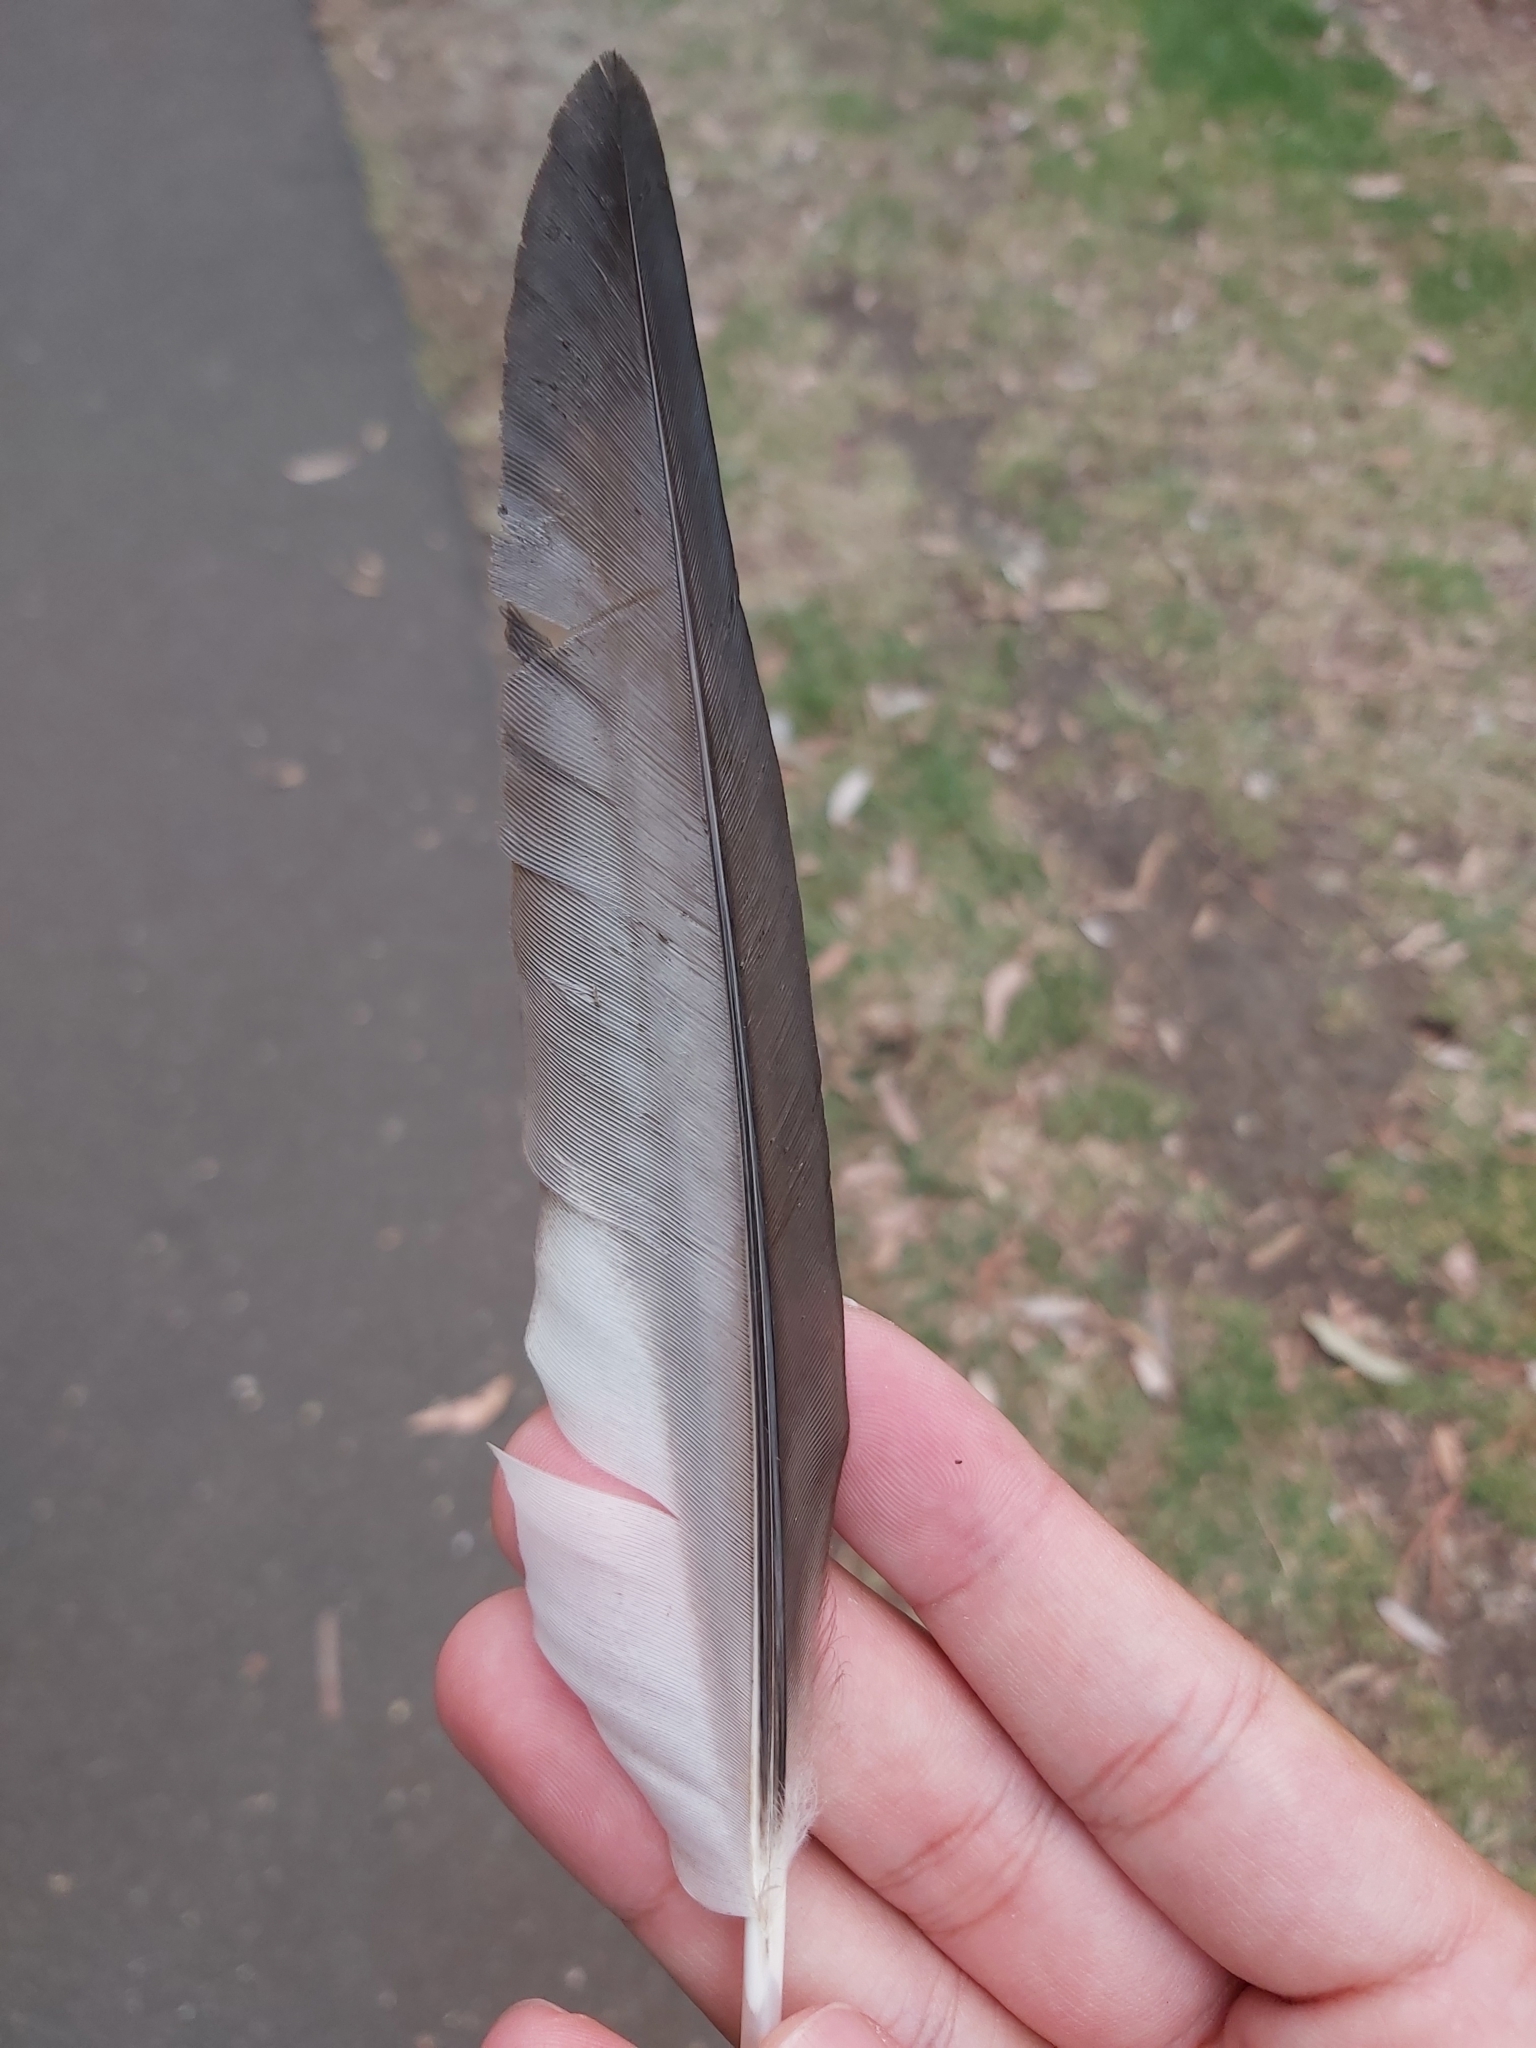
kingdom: Animalia
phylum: Chordata
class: Aves
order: Anseriformes
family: Anatidae
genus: Chenonetta
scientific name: Chenonetta jubata
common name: Maned duck
